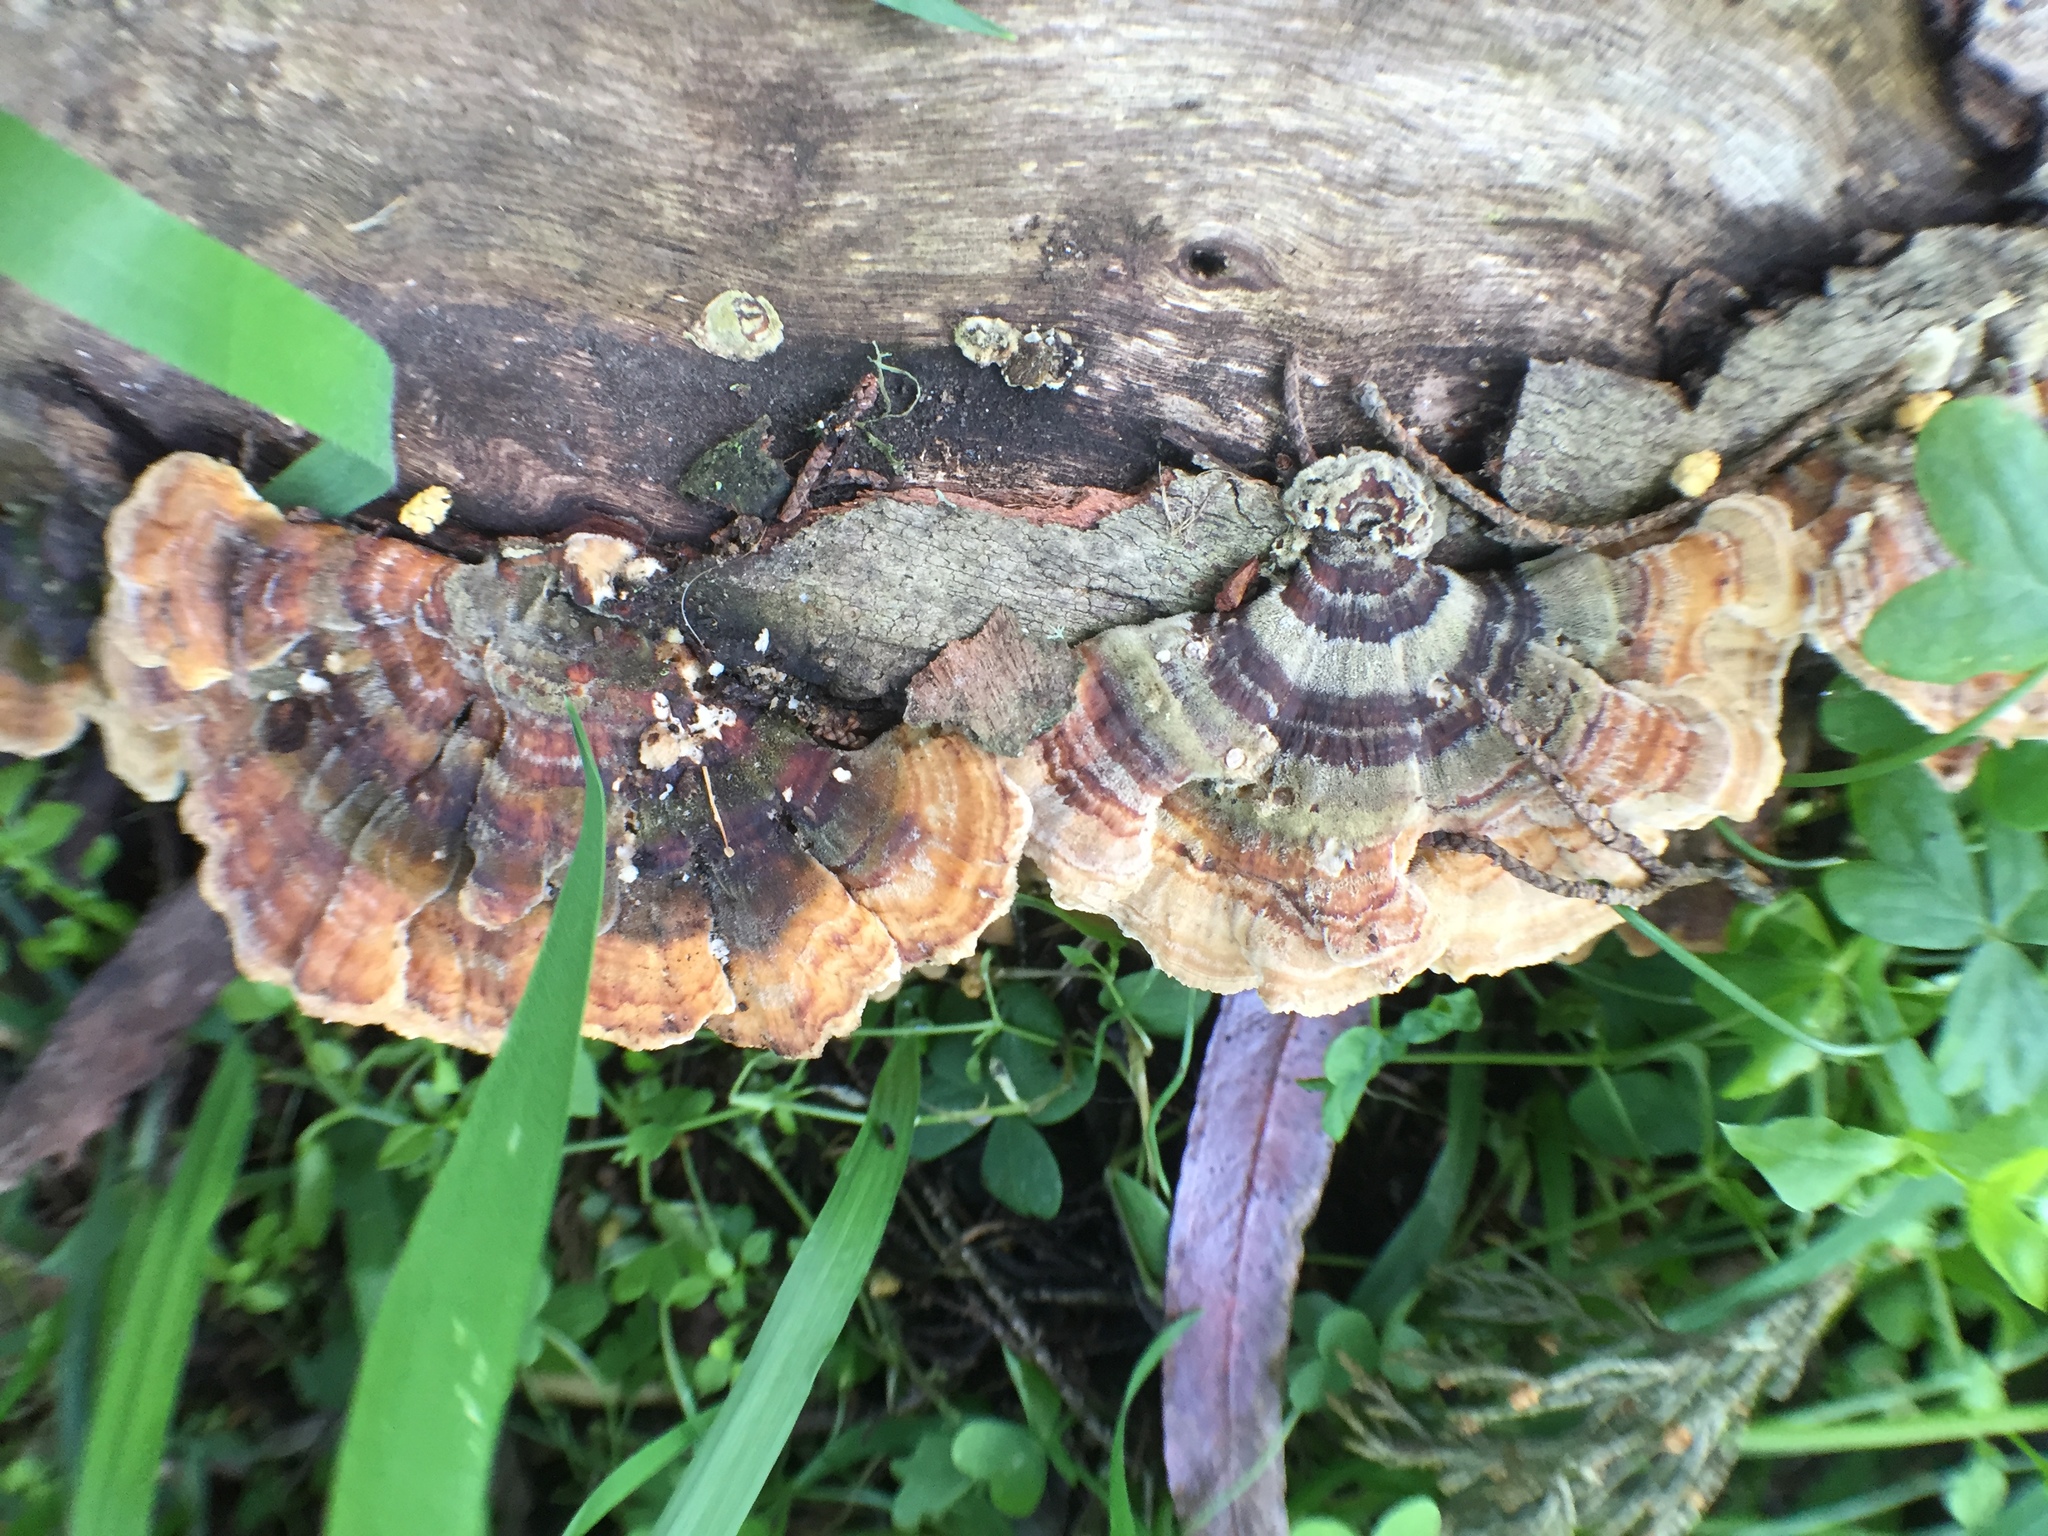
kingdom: Fungi
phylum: Basidiomycota
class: Agaricomycetes
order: Polyporales
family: Polyporaceae
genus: Trametes
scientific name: Trametes versicolor
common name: Turkeytail
